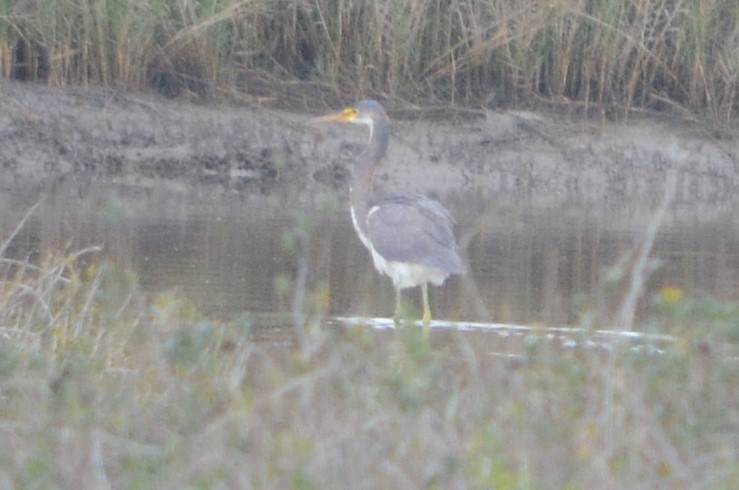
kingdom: Animalia
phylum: Chordata
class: Aves
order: Pelecaniformes
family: Ardeidae
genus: Egretta
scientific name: Egretta tricolor
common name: Tricolored heron
